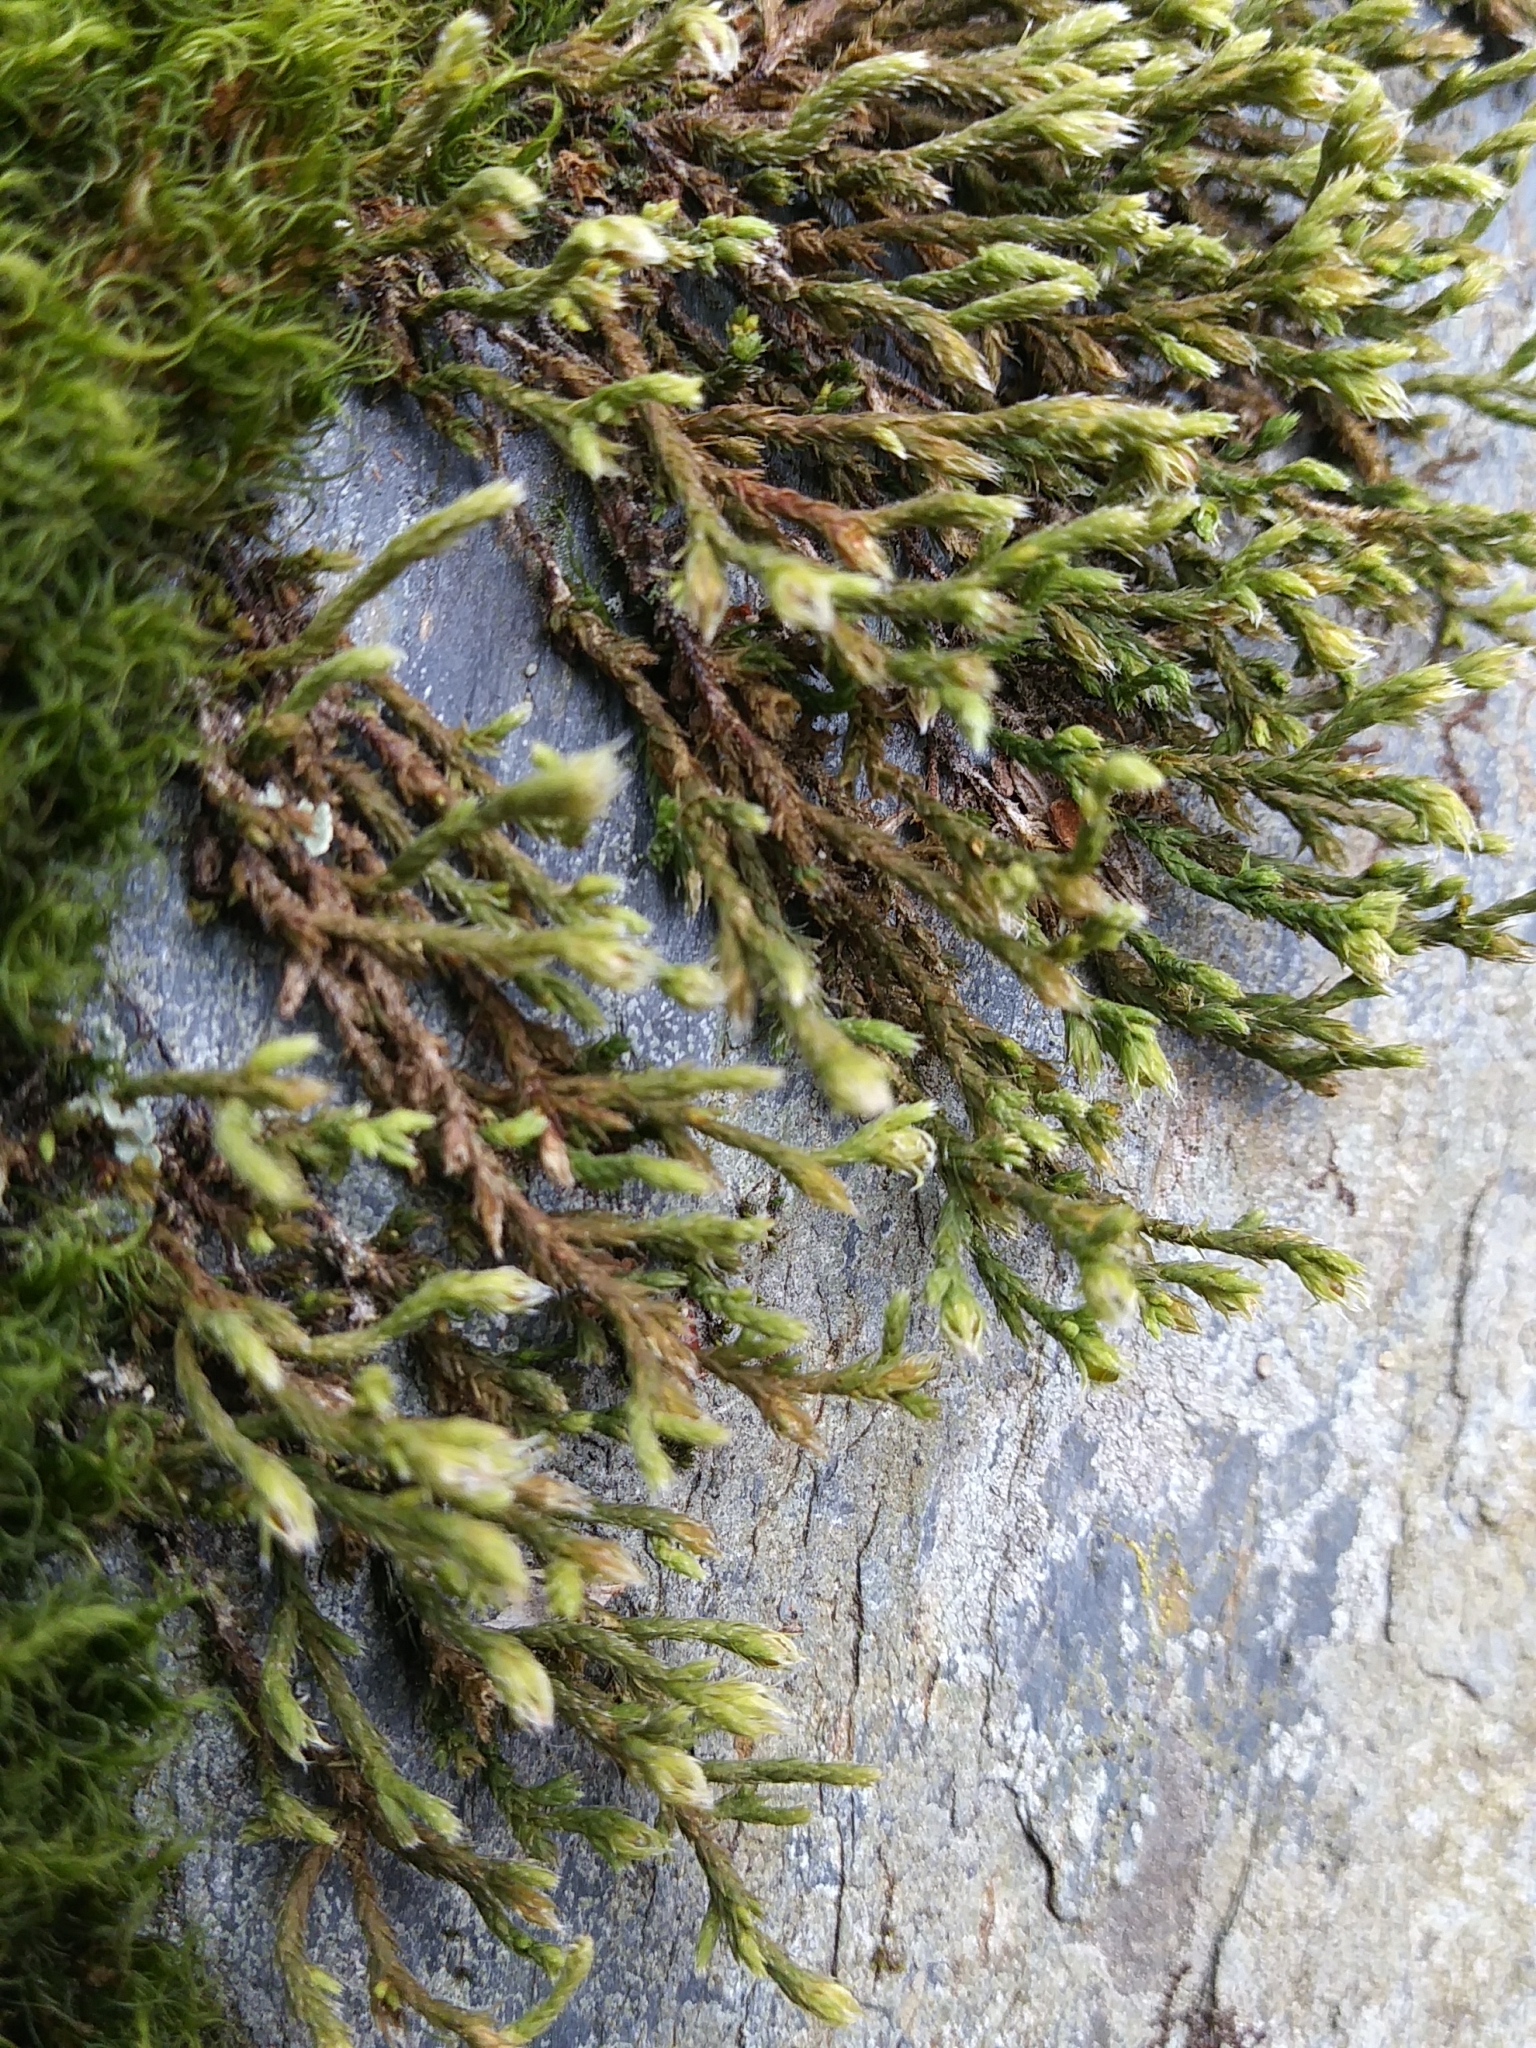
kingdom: Plantae
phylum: Bryophyta
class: Bryopsida
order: Hedwigiales
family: Hedwigiaceae
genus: Hedwigia
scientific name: Hedwigia ciliata
